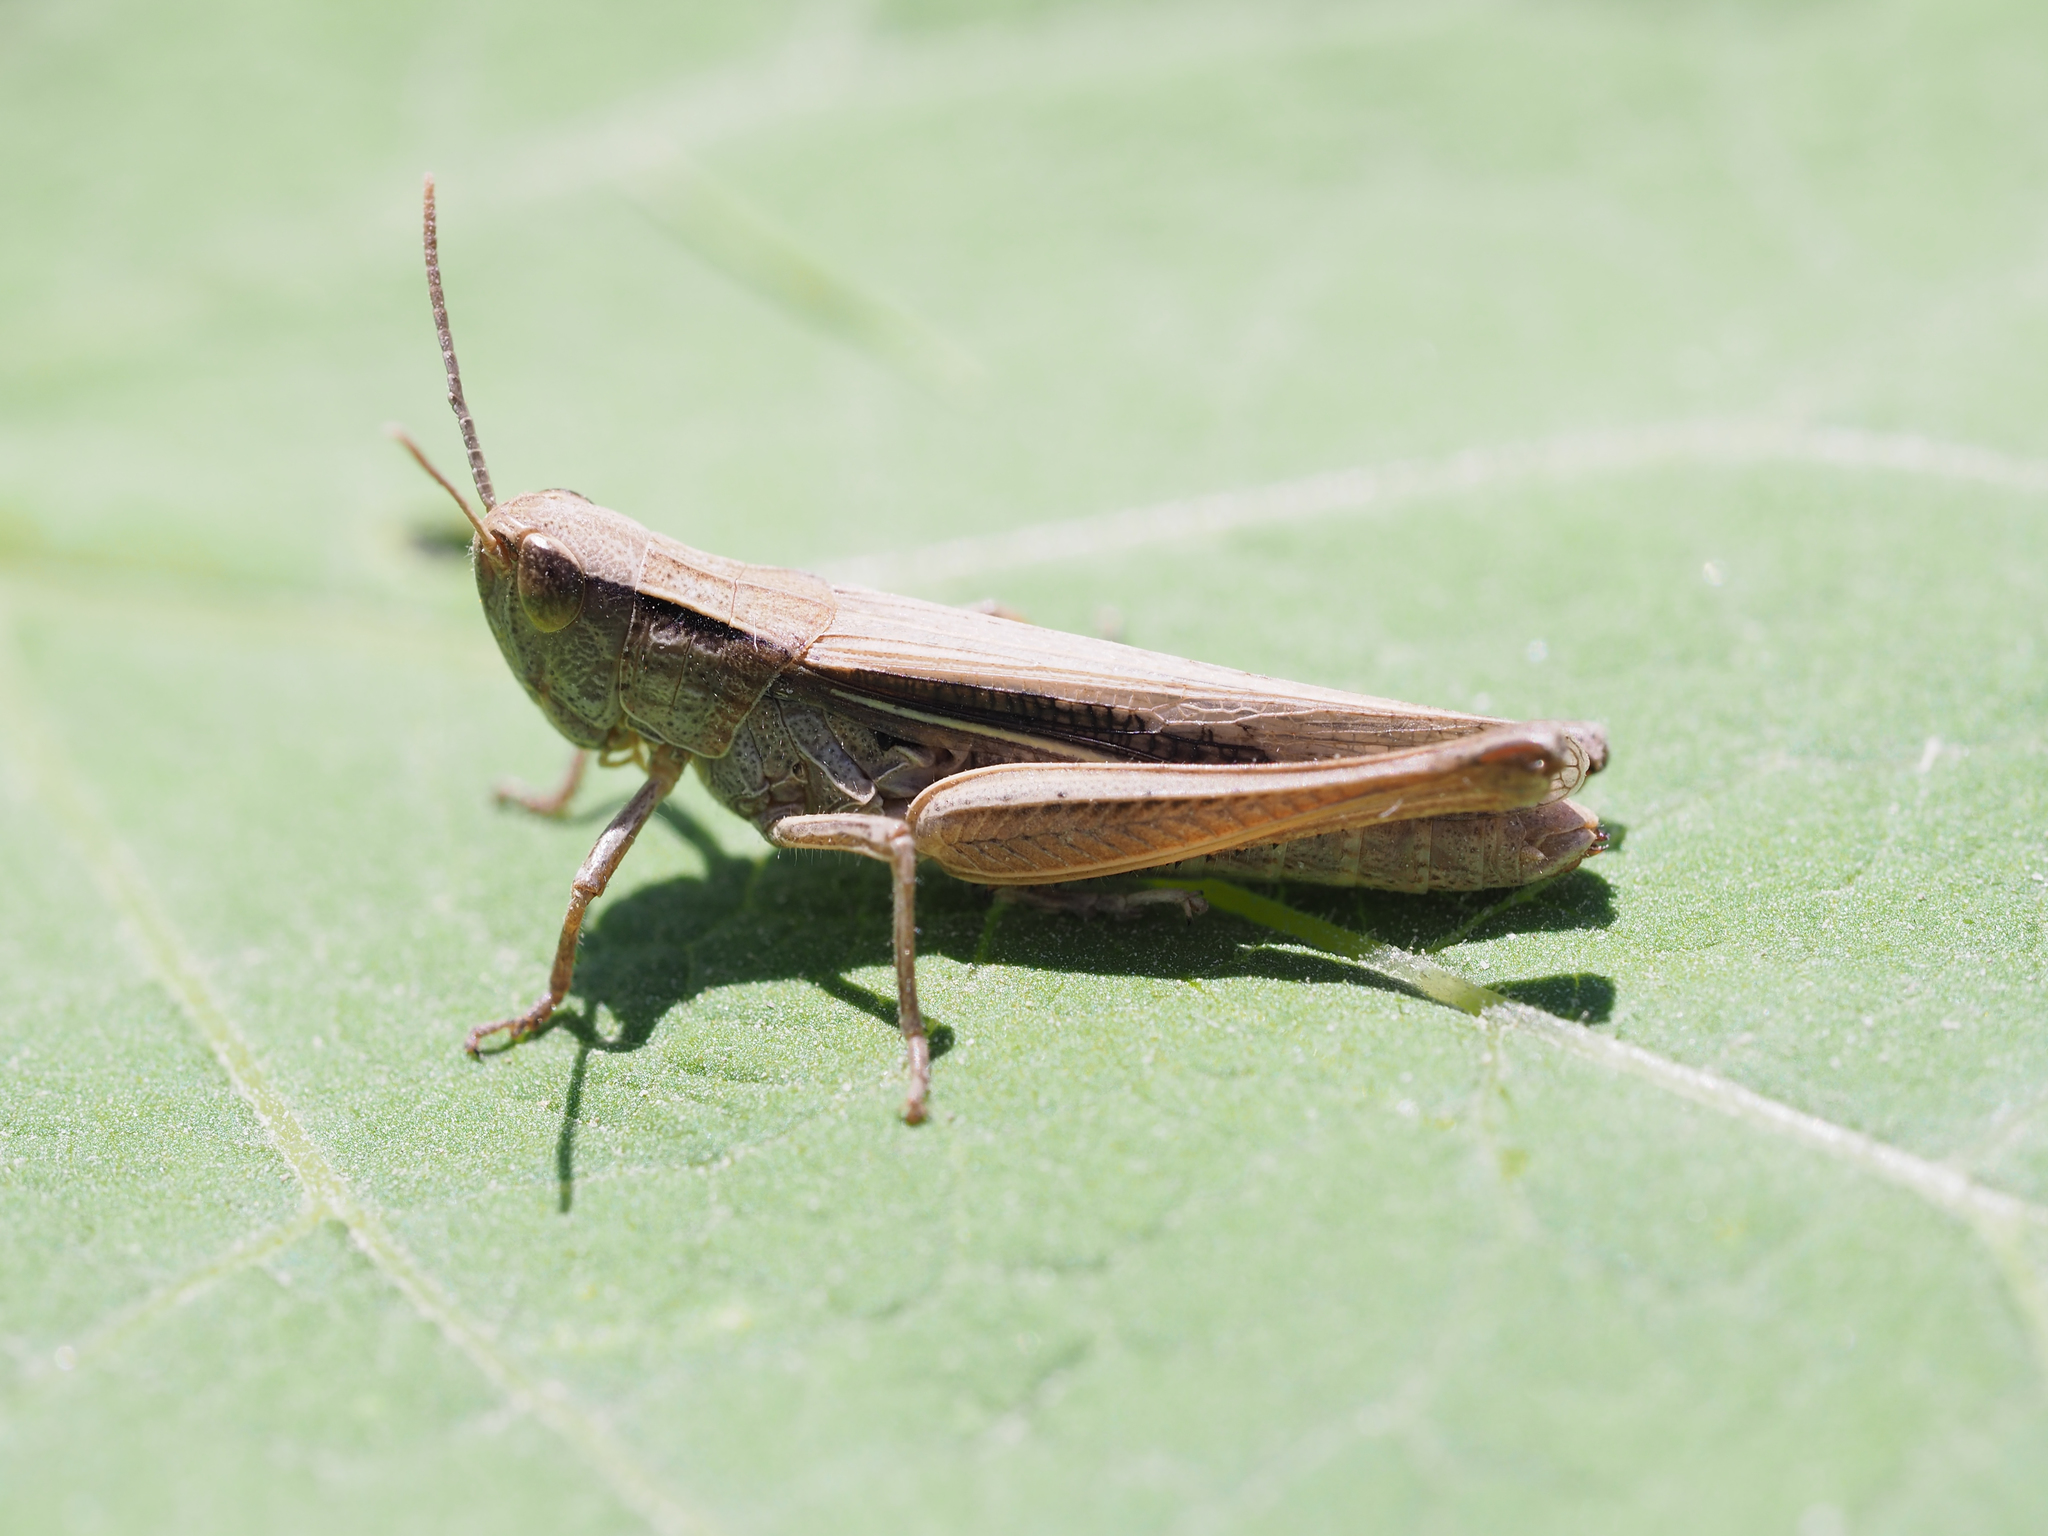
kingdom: Animalia
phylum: Arthropoda
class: Insecta
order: Orthoptera
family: Acrididae
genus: Chorthippus
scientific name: Chorthippus oschei
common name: Carpathian dancing grasshopper
